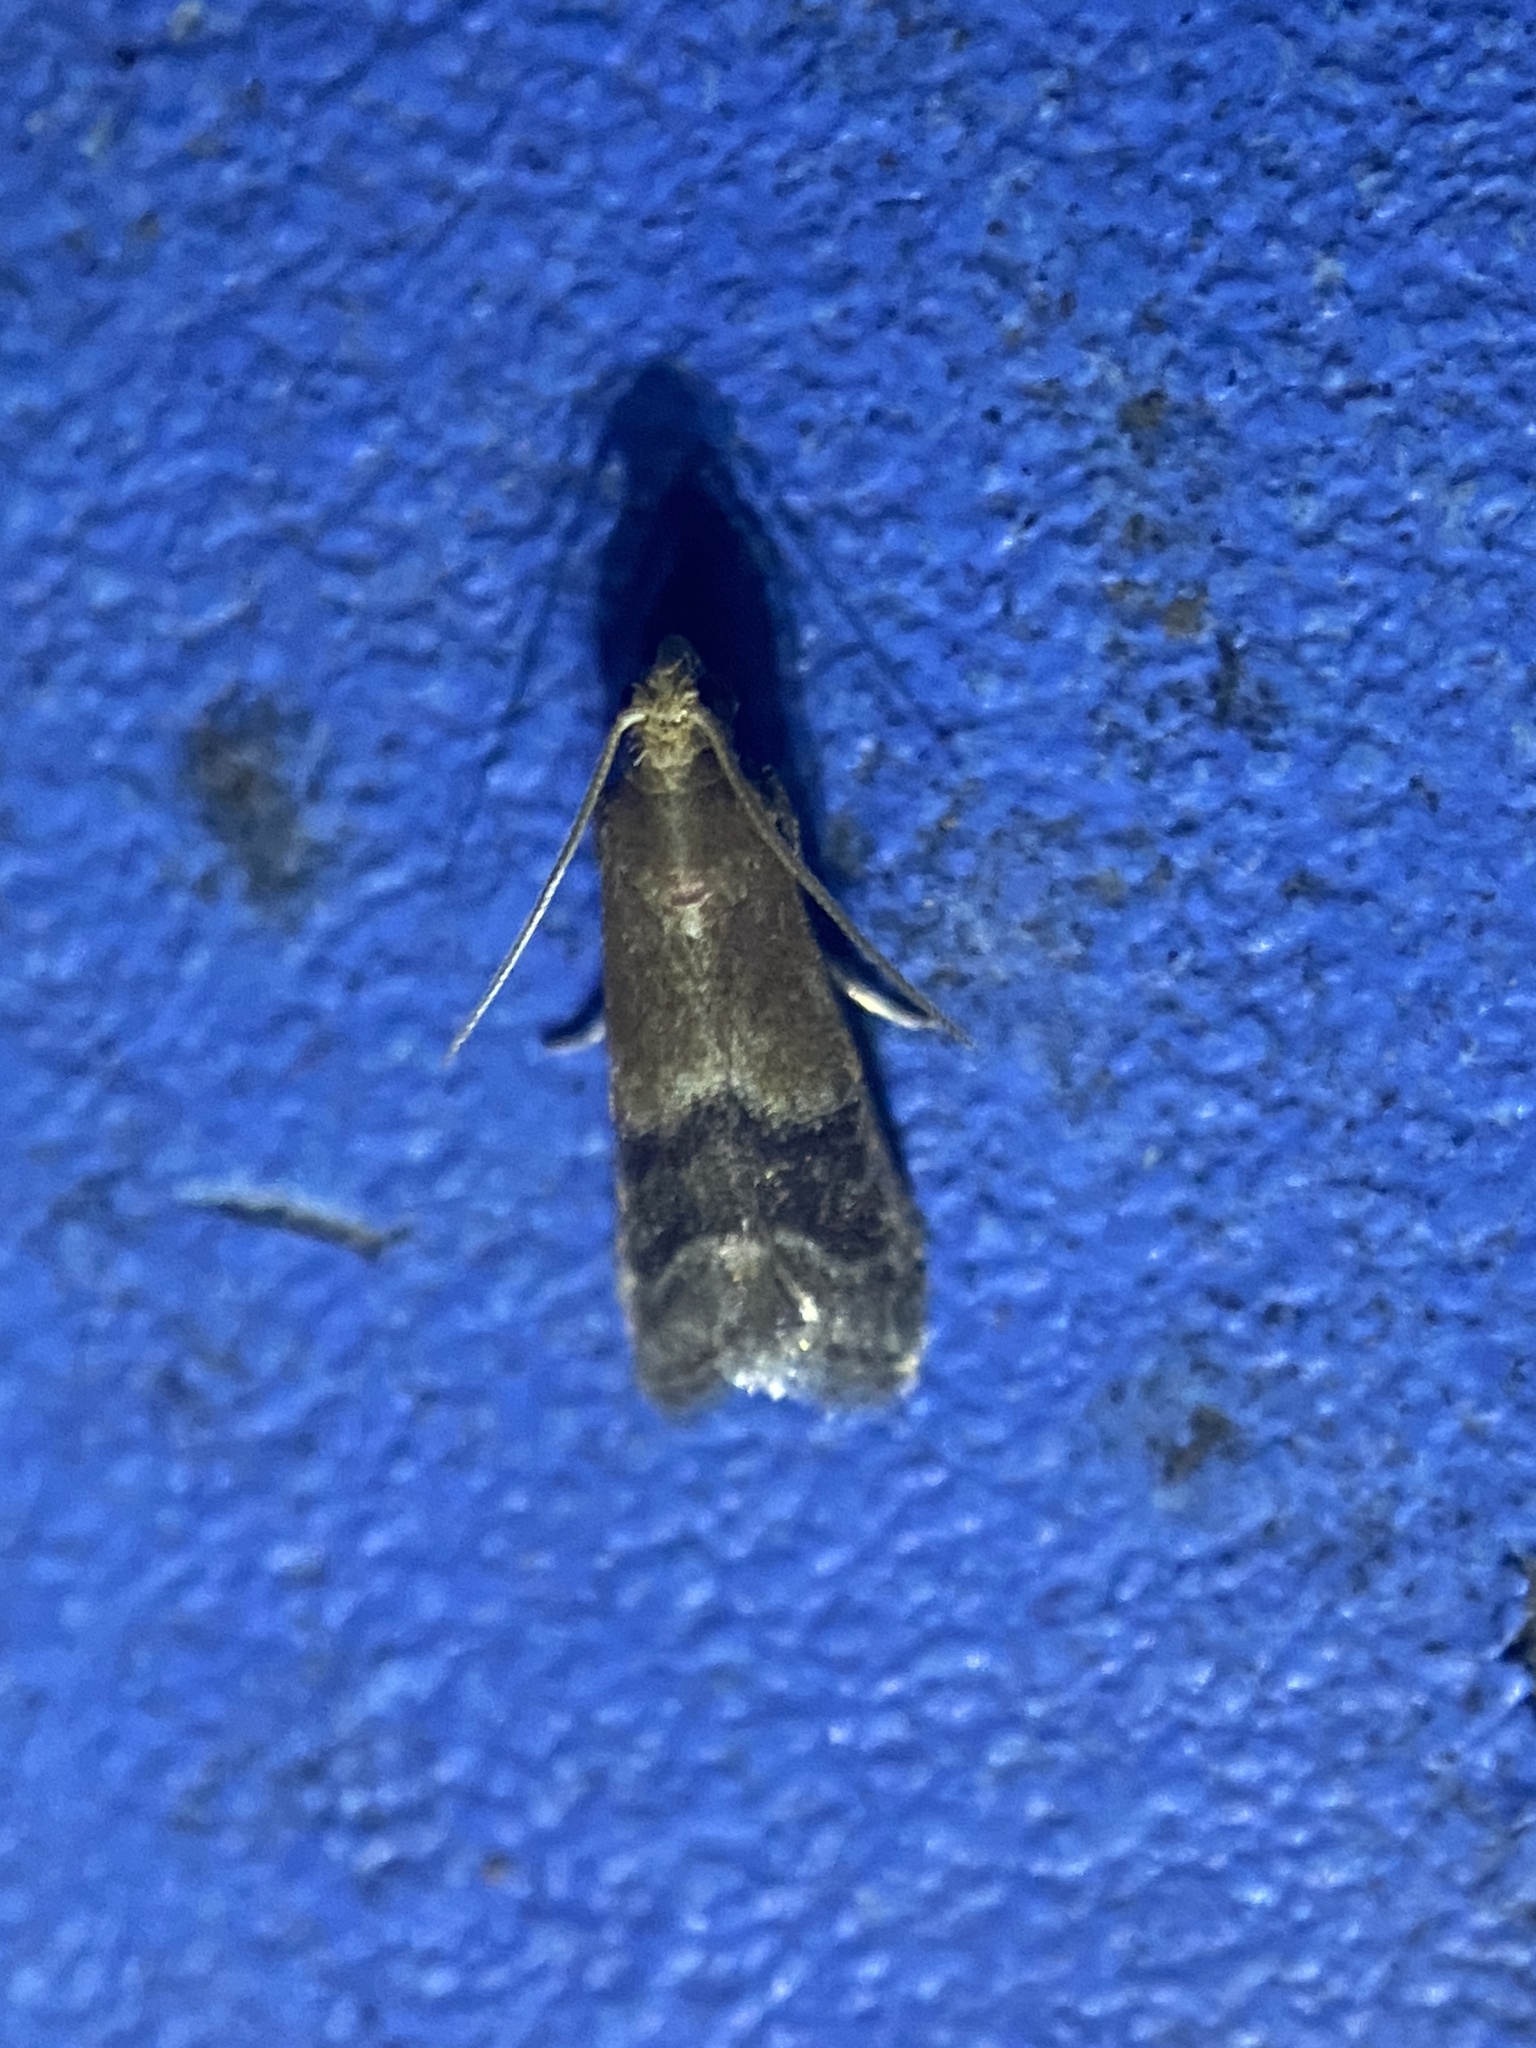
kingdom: Animalia
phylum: Arthropoda
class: Insecta
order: Lepidoptera
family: Pyralidae
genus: Eulogia
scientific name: Eulogia ochrifrontella
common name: Broad-banded eulogia moth
